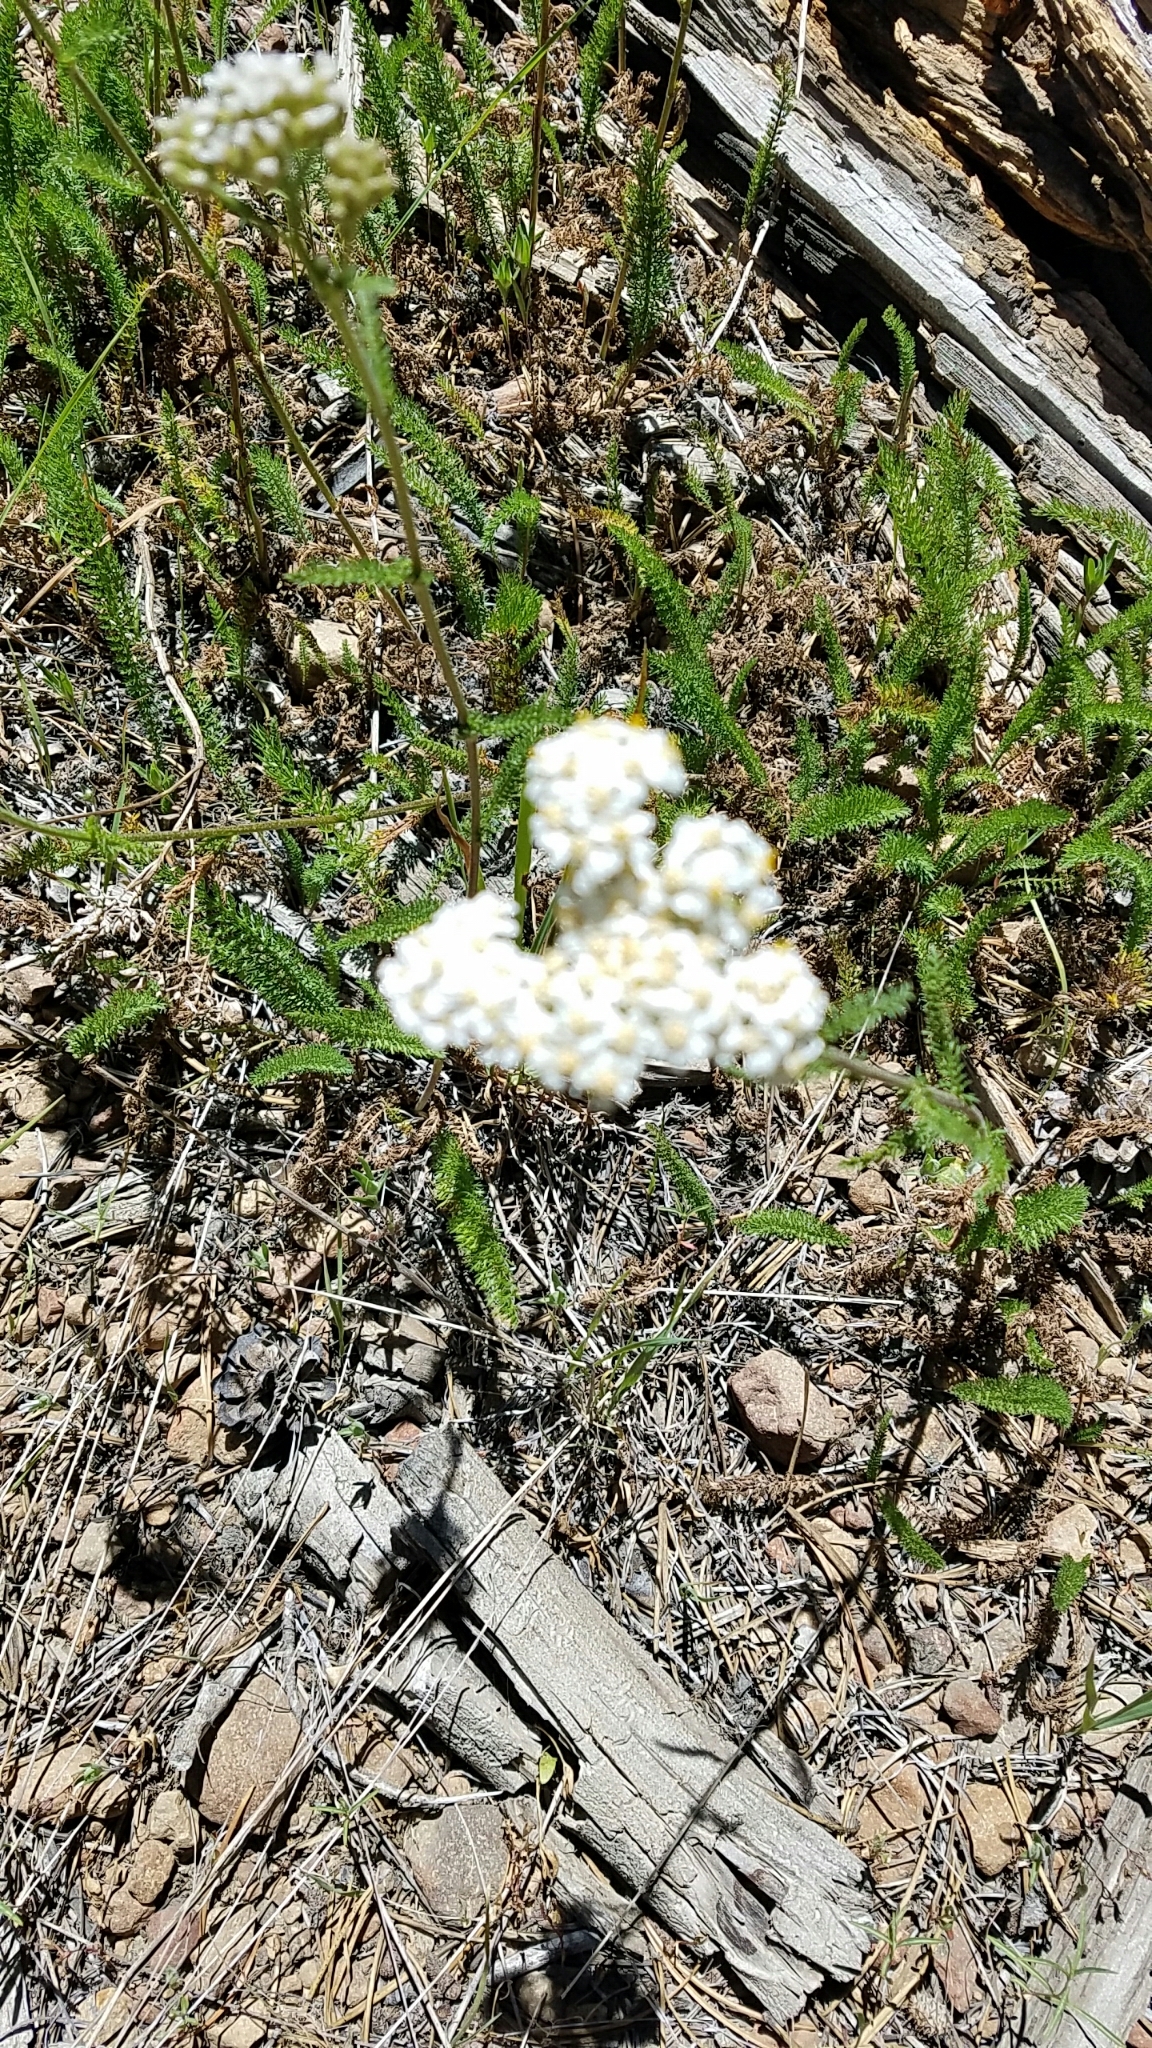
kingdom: Plantae
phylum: Tracheophyta
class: Magnoliopsida
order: Asterales
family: Asteraceae
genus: Achillea
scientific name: Achillea millefolium
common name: Yarrow
